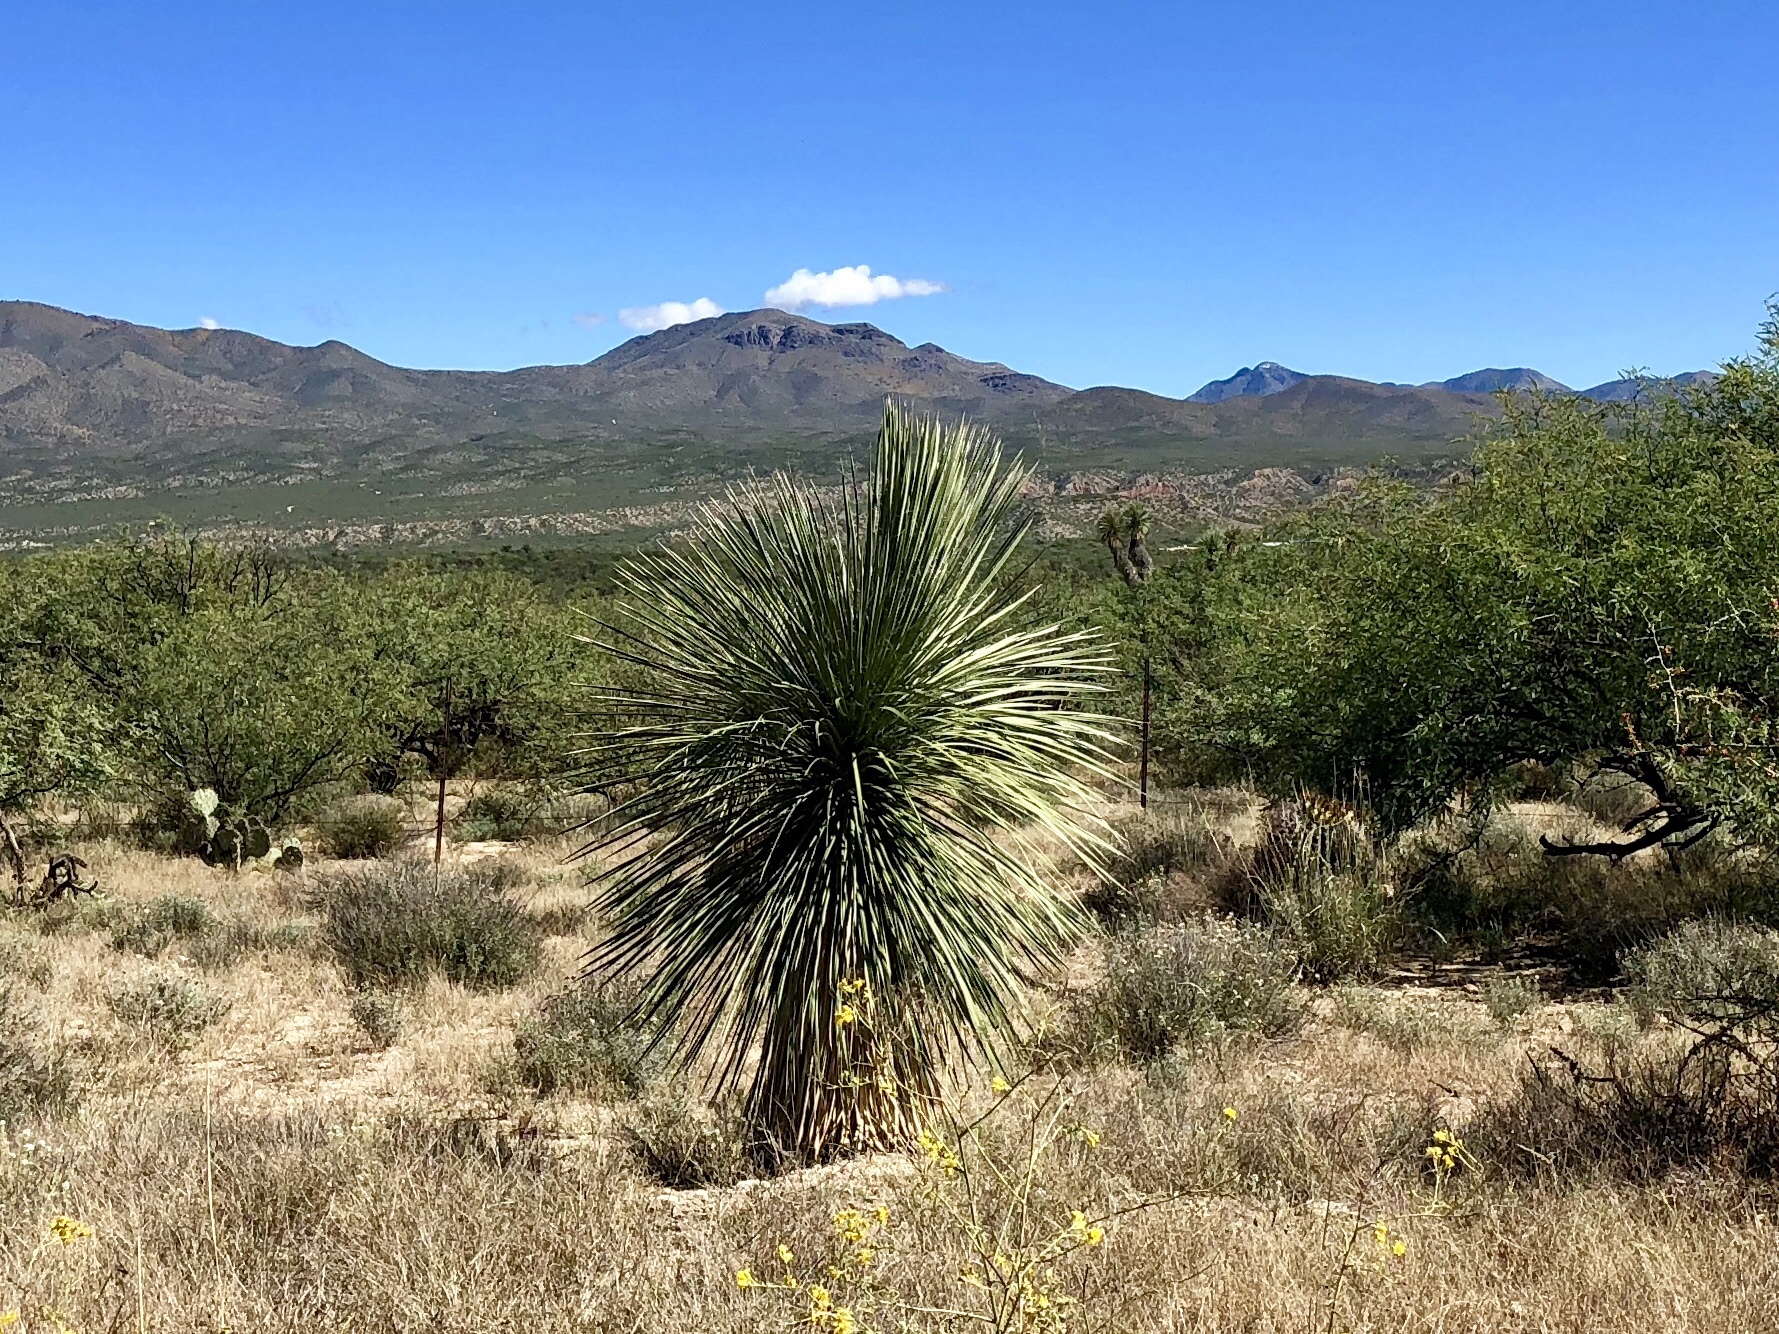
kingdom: Plantae
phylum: Tracheophyta
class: Liliopsida
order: Asparagales
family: Asparagaceae
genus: Yucca
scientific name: Yucca elata
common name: Palmella
